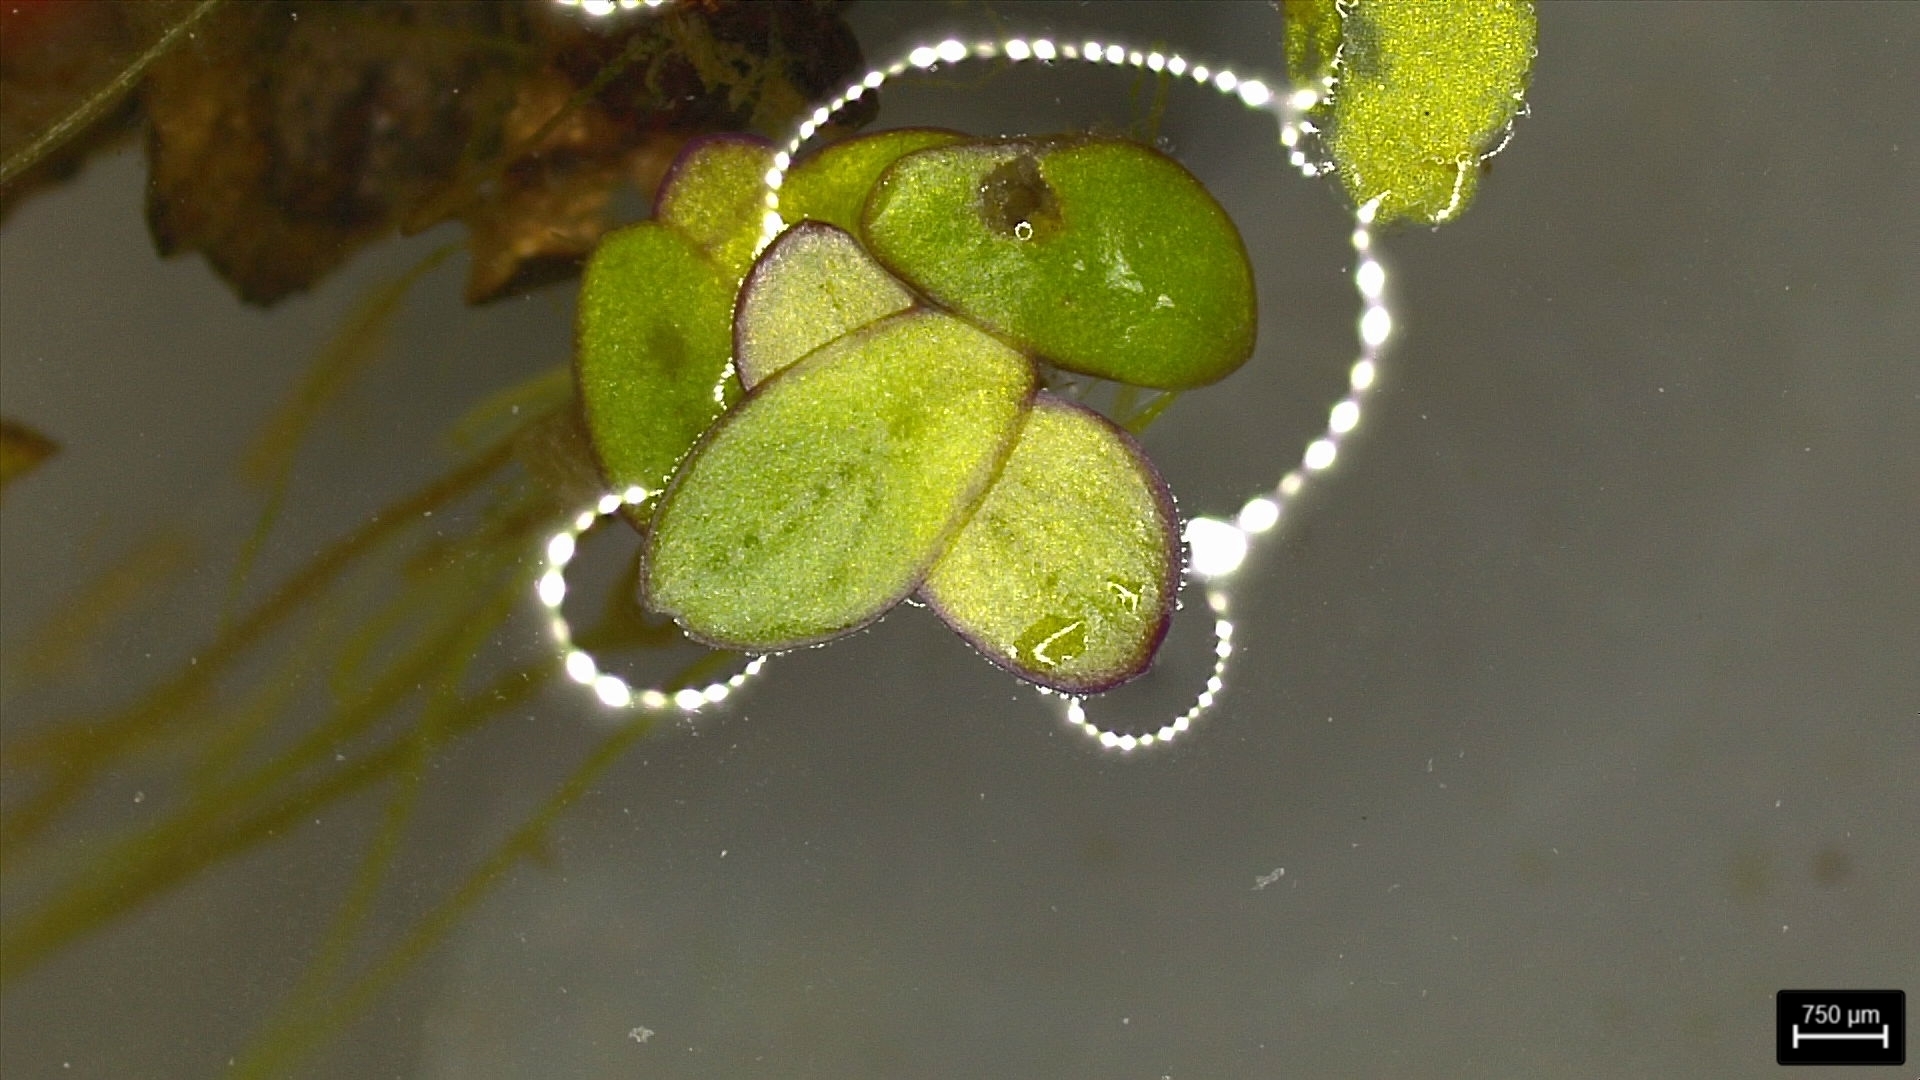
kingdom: Plantae
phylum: Tracheophyta
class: Liliopsida
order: Alismatales
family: Araceae
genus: Spirodela
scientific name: Spirodela punctata
